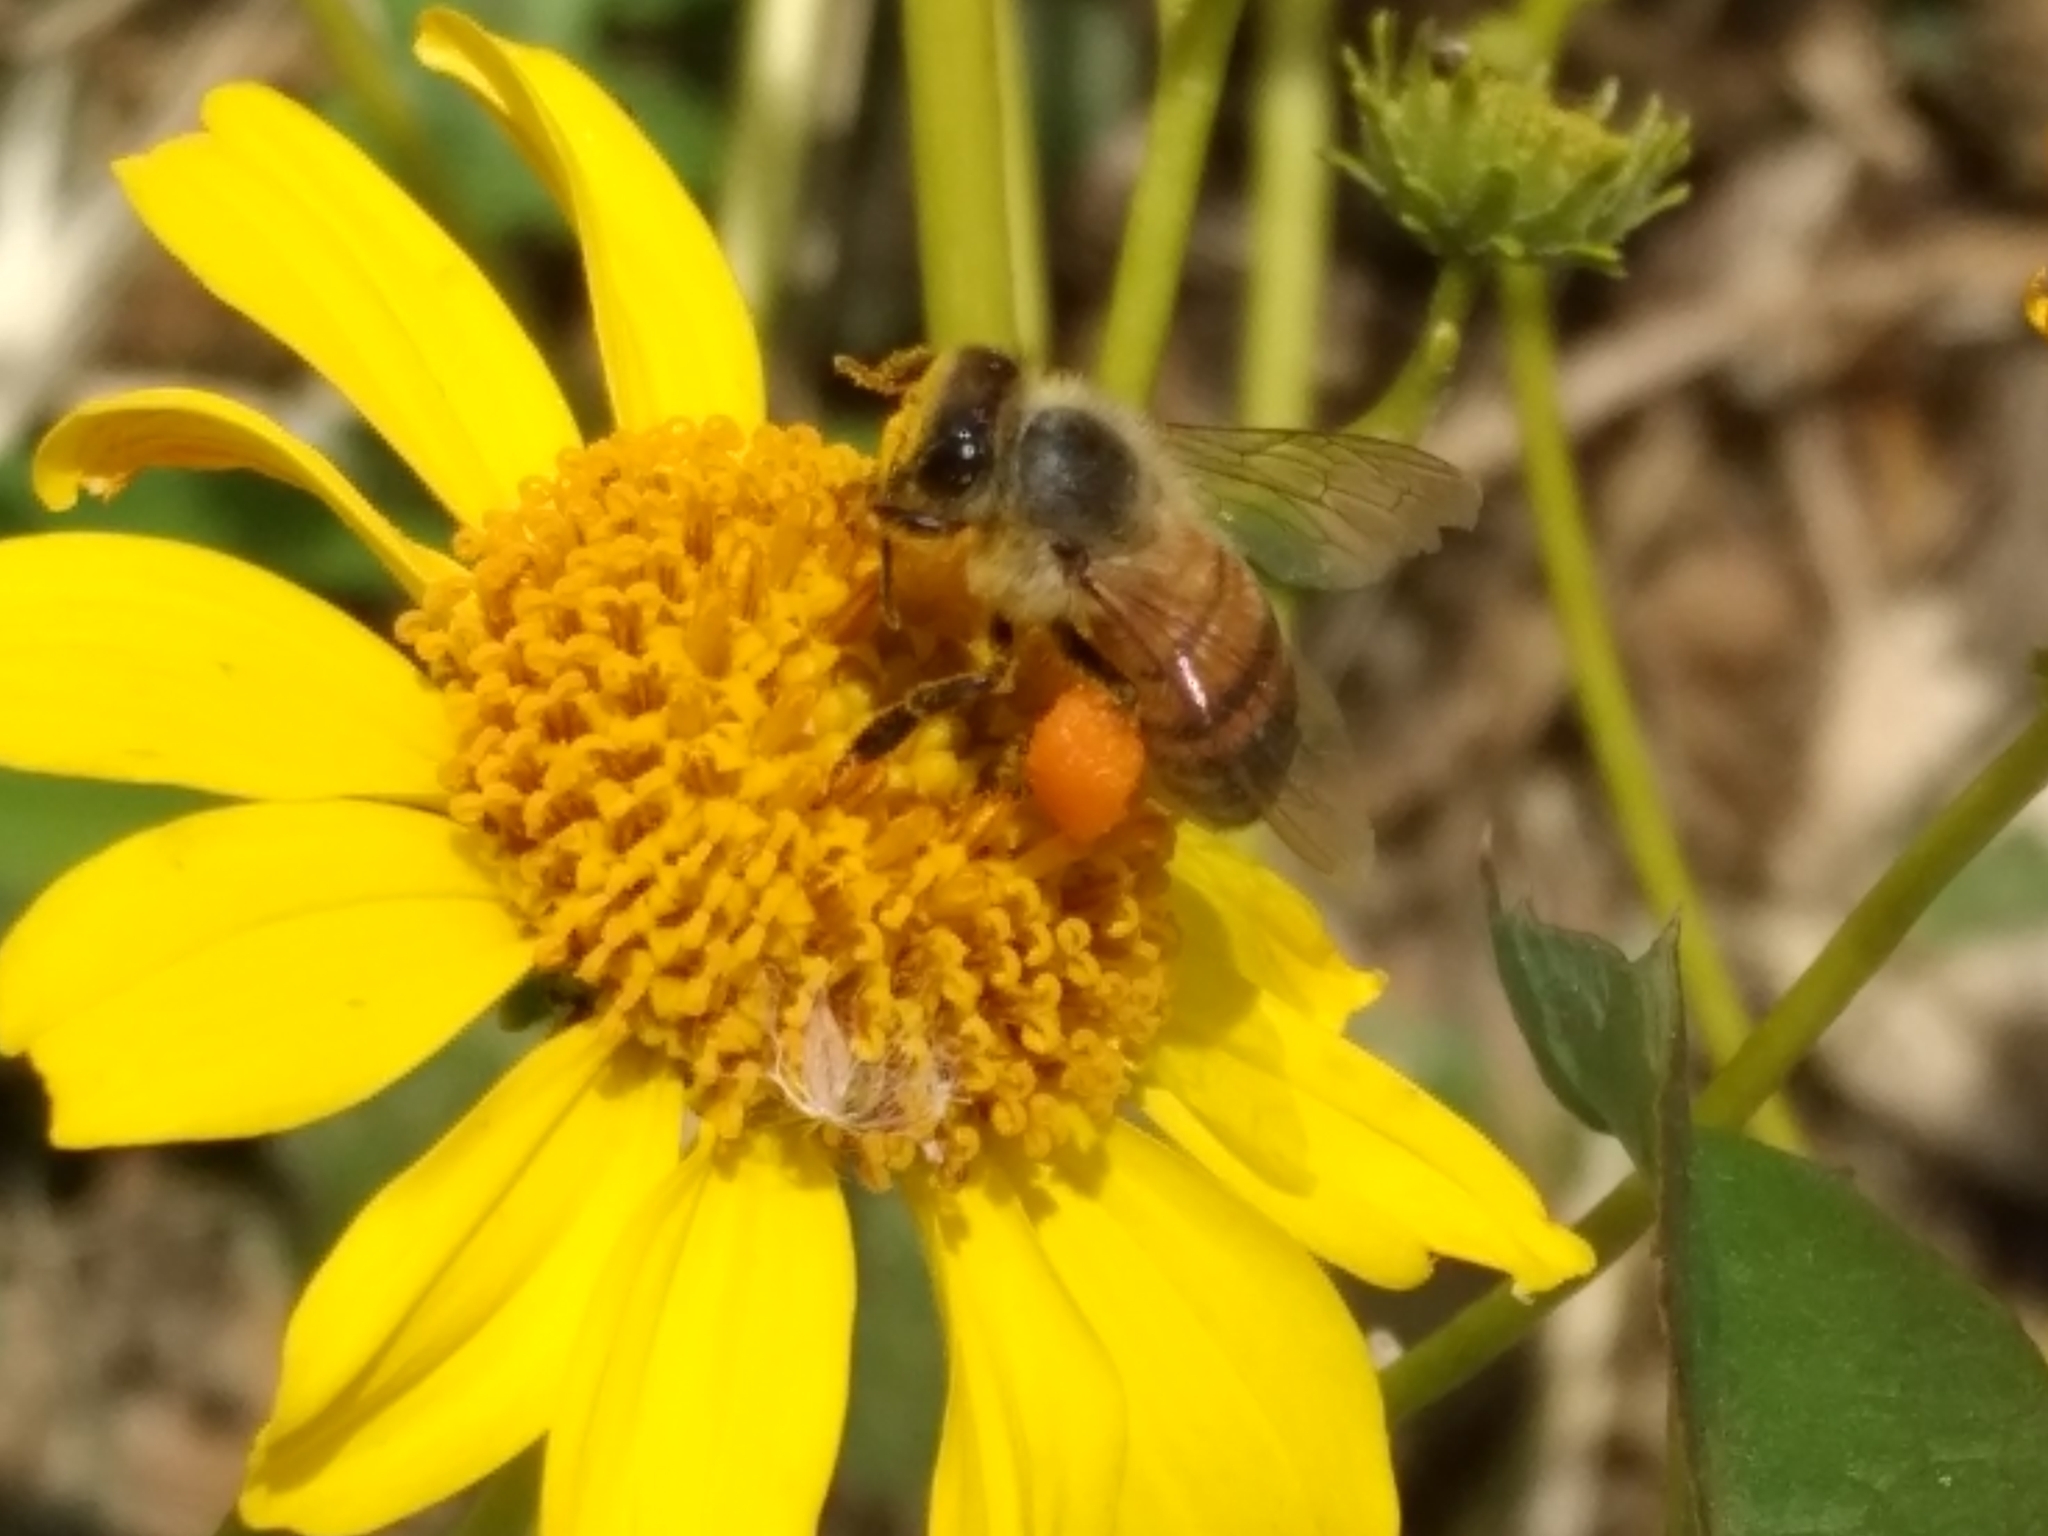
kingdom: Animalia
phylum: Arthropoda
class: Insecta
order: Hymenoptera
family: Apidae
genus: Apis
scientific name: Apis mellifera
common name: Honey bee
